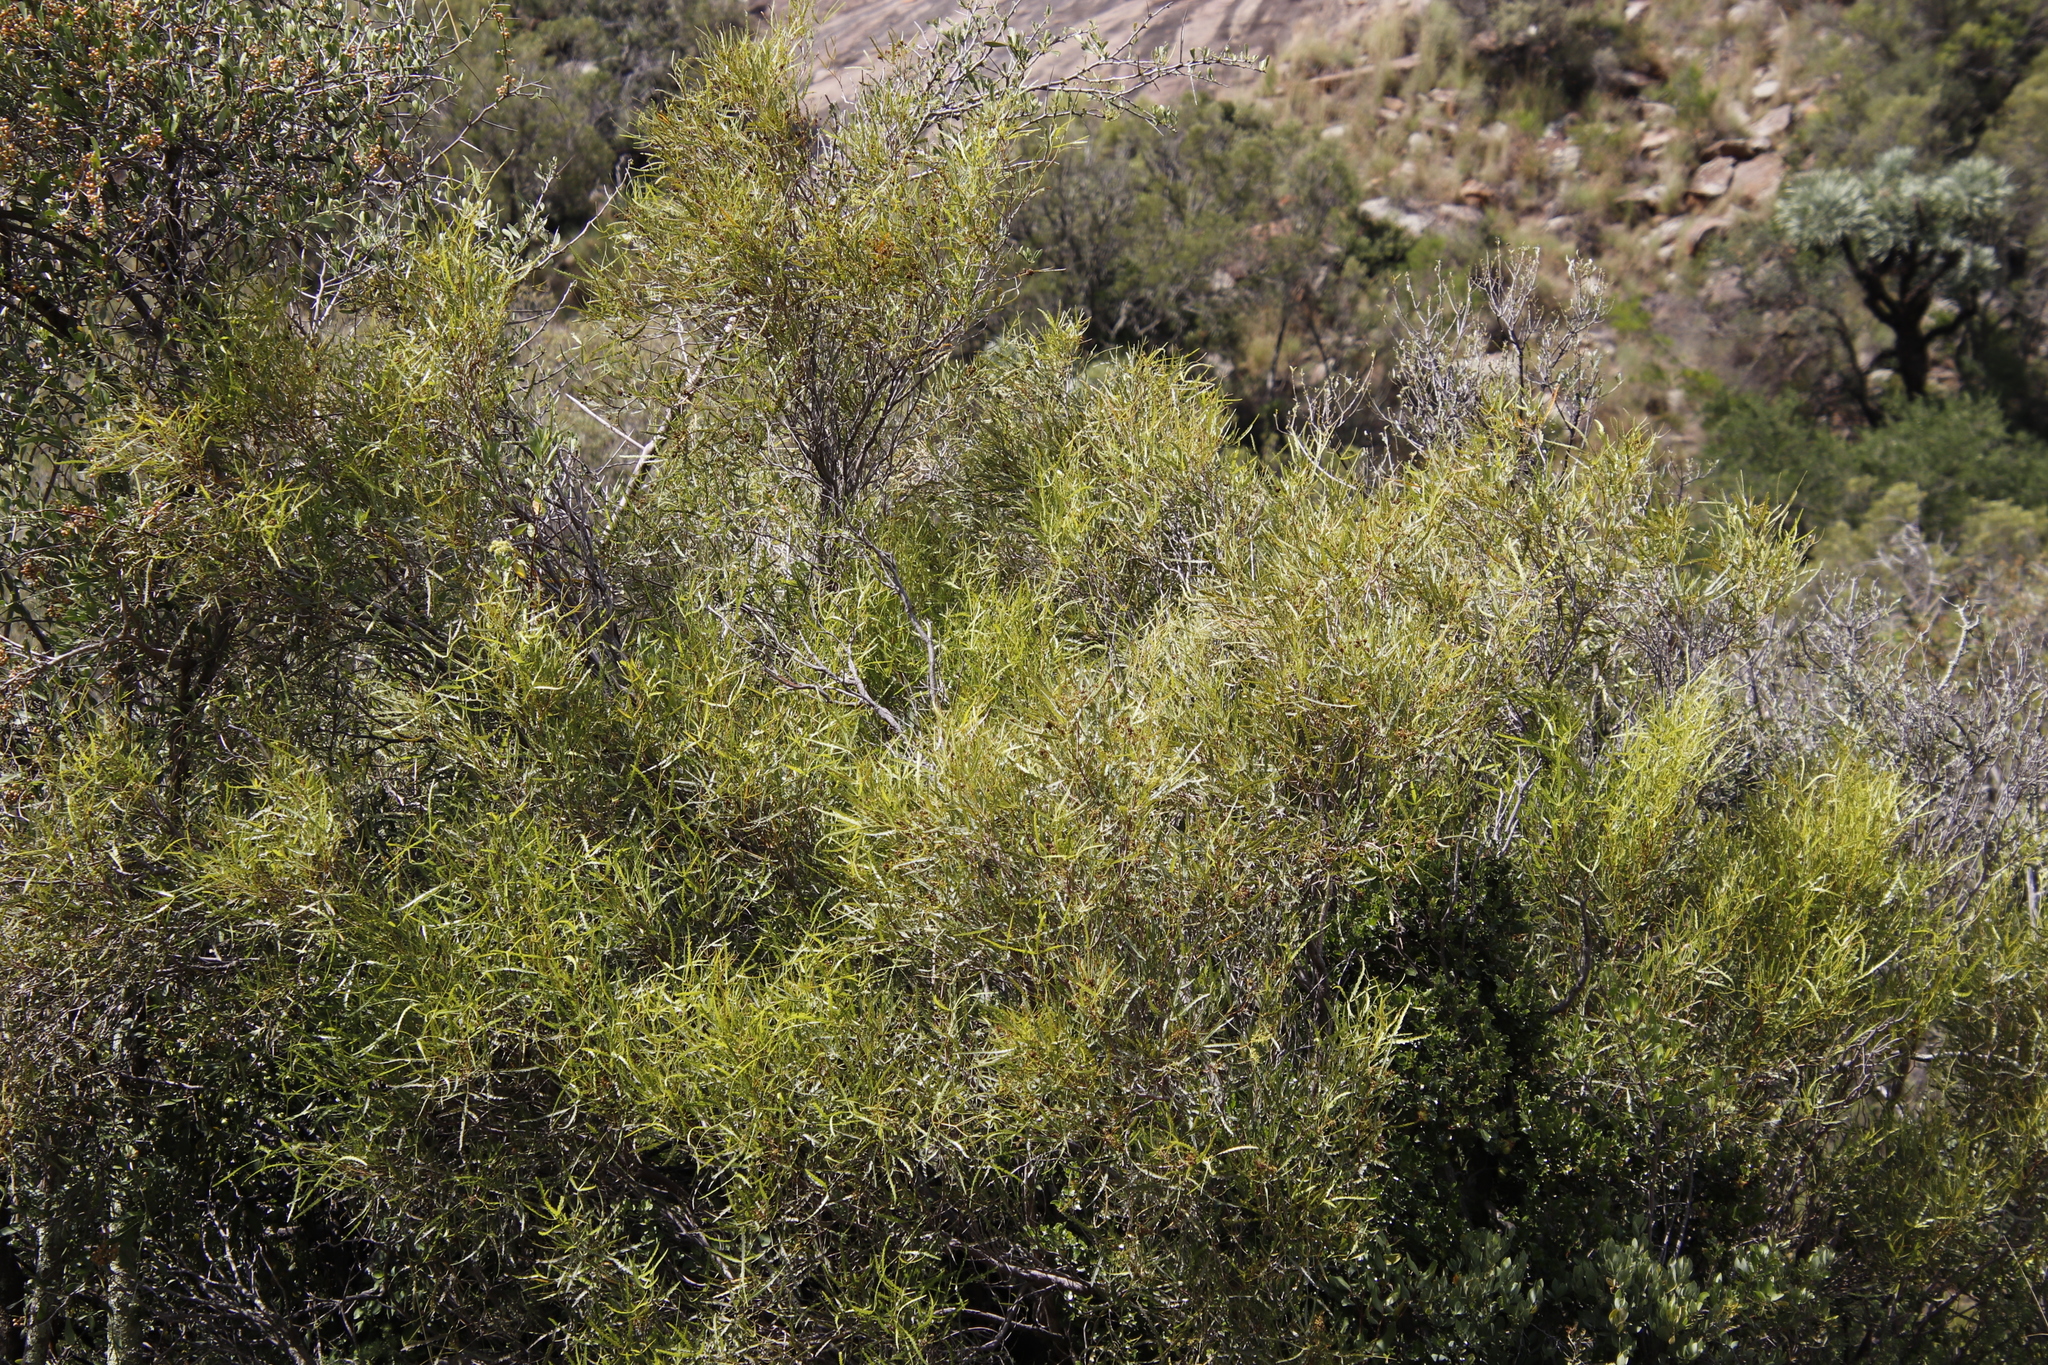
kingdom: Plantae
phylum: Tracheophyta
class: Magnoliopsida
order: Sapindales
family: Anacardiaceae
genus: Searsia
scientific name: Searsia erosa
